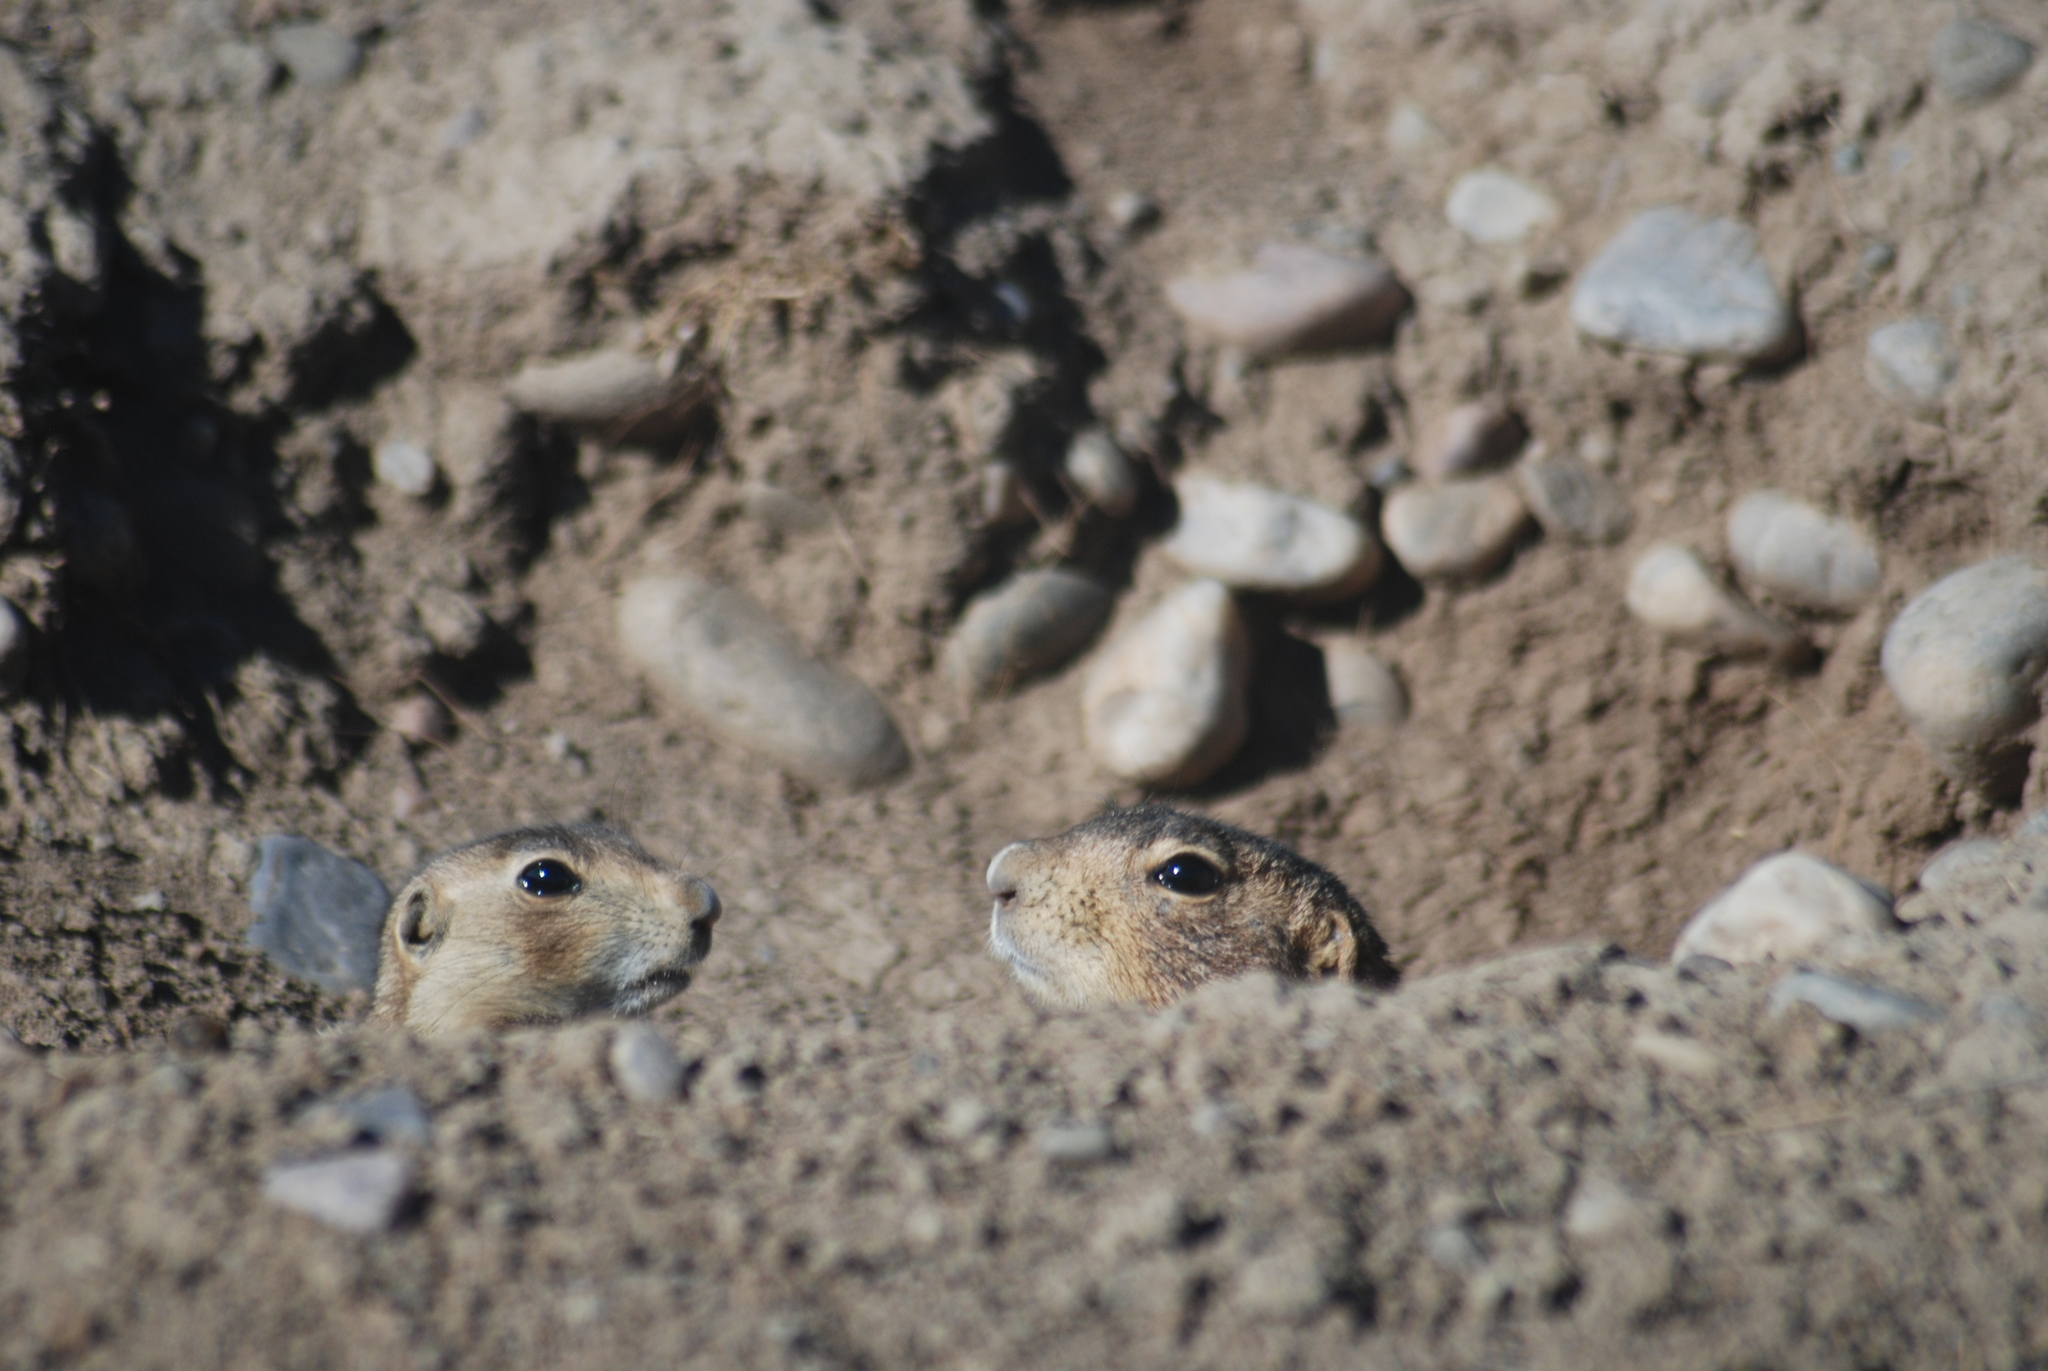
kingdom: Animalia
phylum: Chordata
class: Mammalia
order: Rodentia
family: Sciuridae
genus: Cynomys
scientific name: Cynomys gunnisoni
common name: Gunnison's prairie dog
